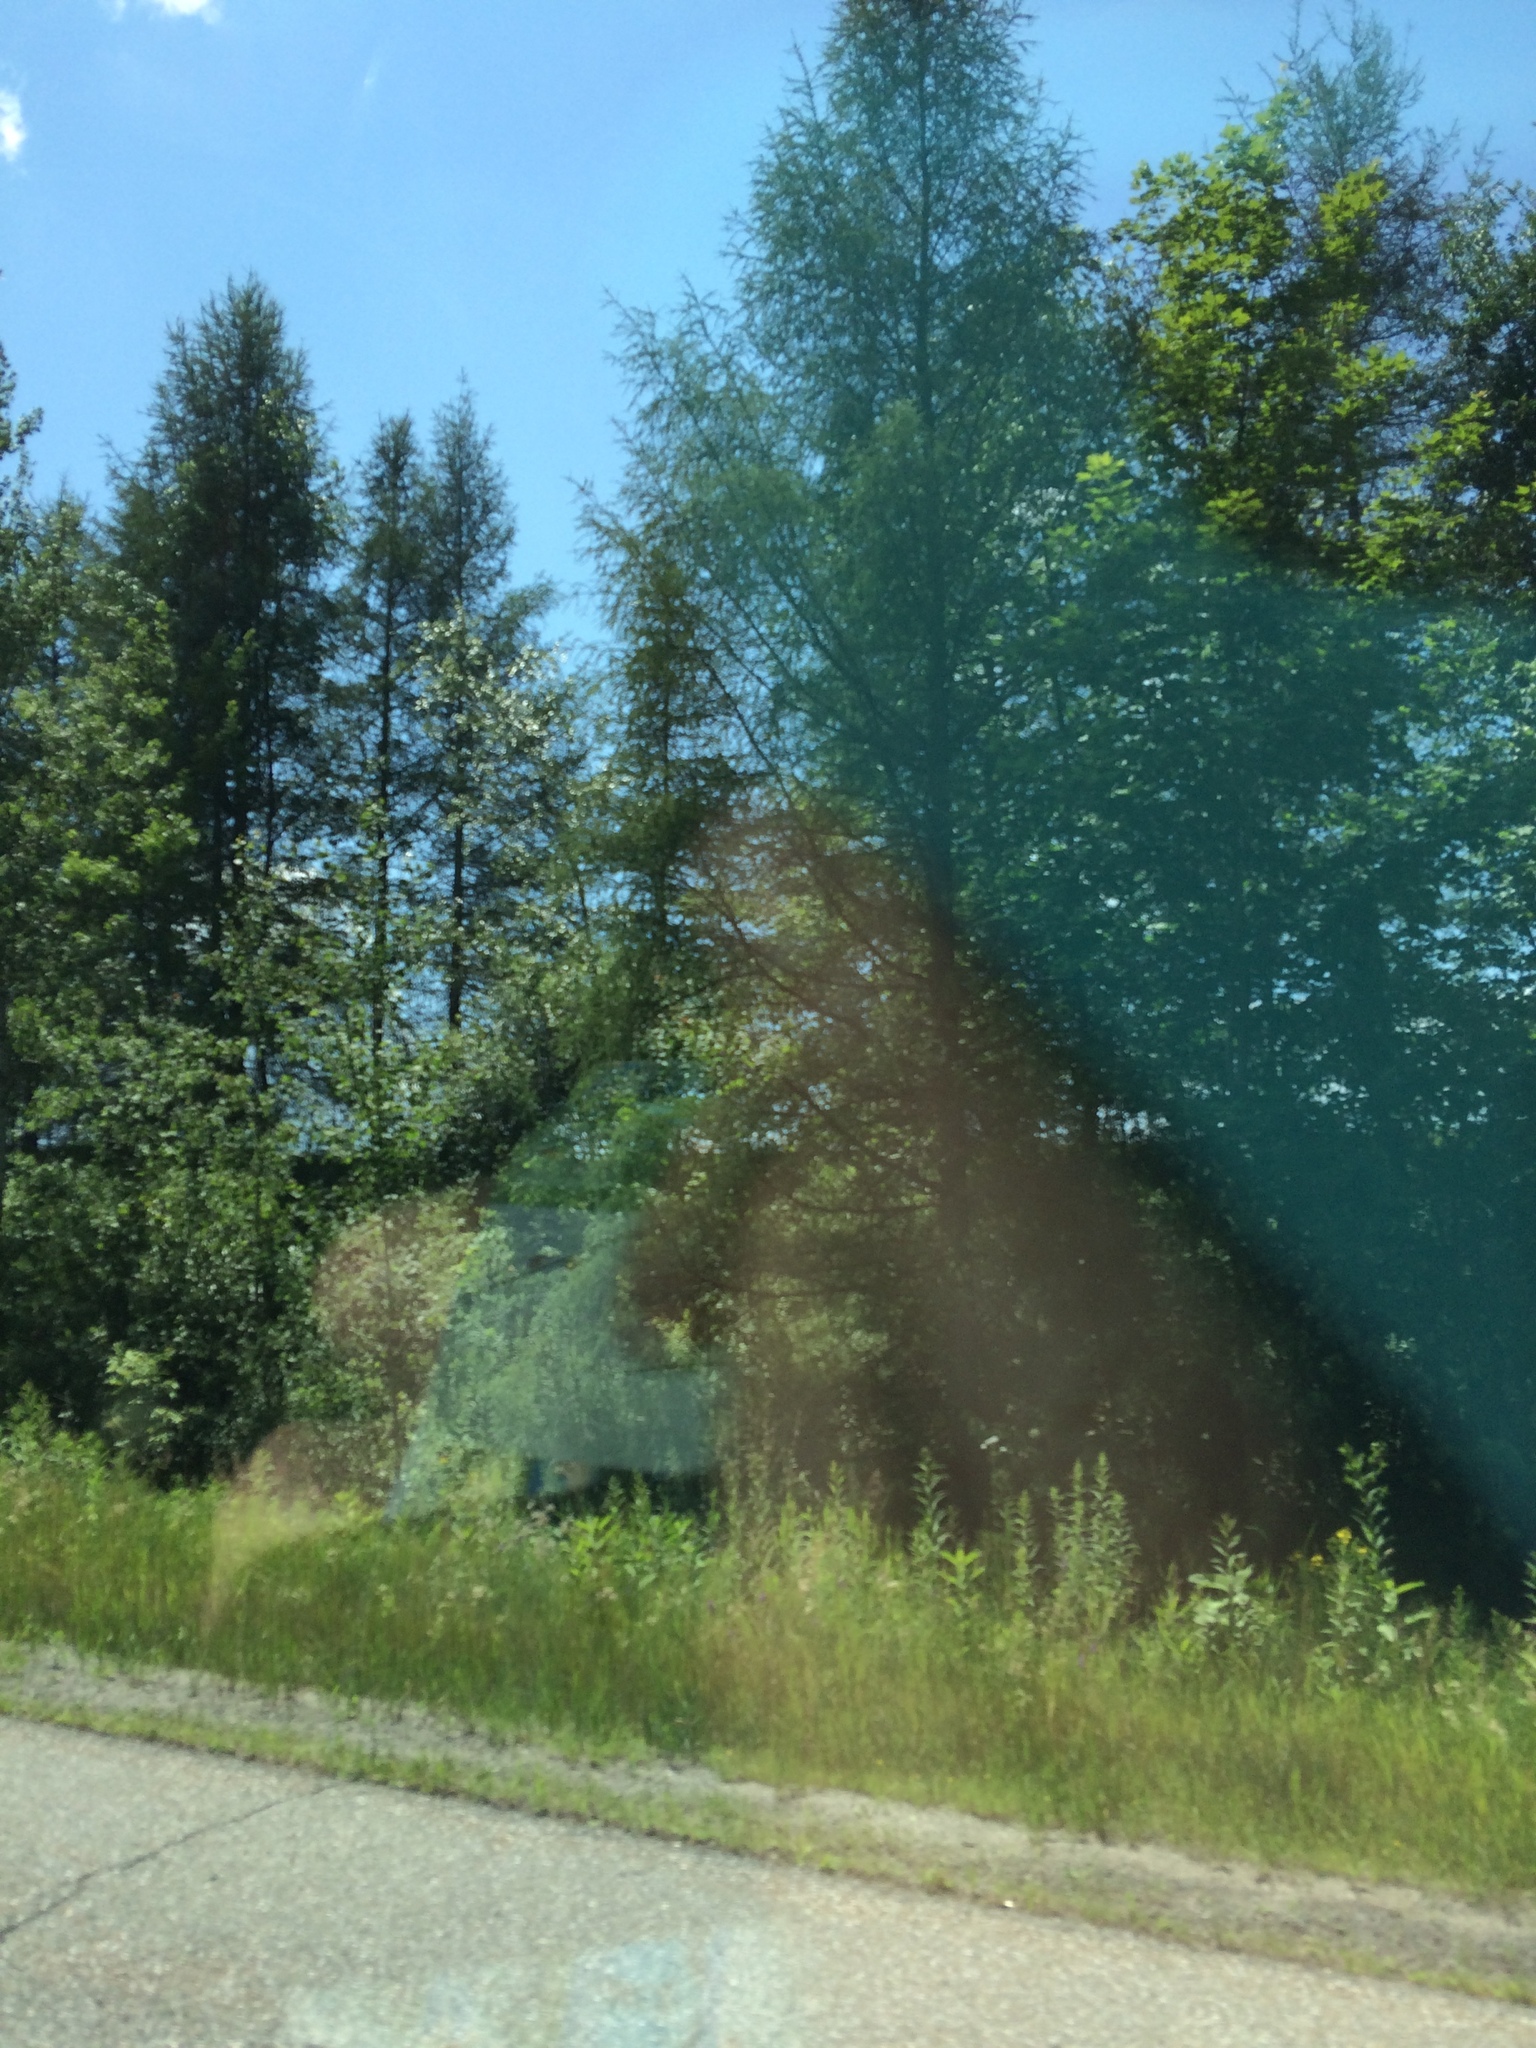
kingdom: Plantae
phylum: Tracheophyta
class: Pinopsida
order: Pinales
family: Pinaceae
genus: Larix
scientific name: Larix laricina
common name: American larch
